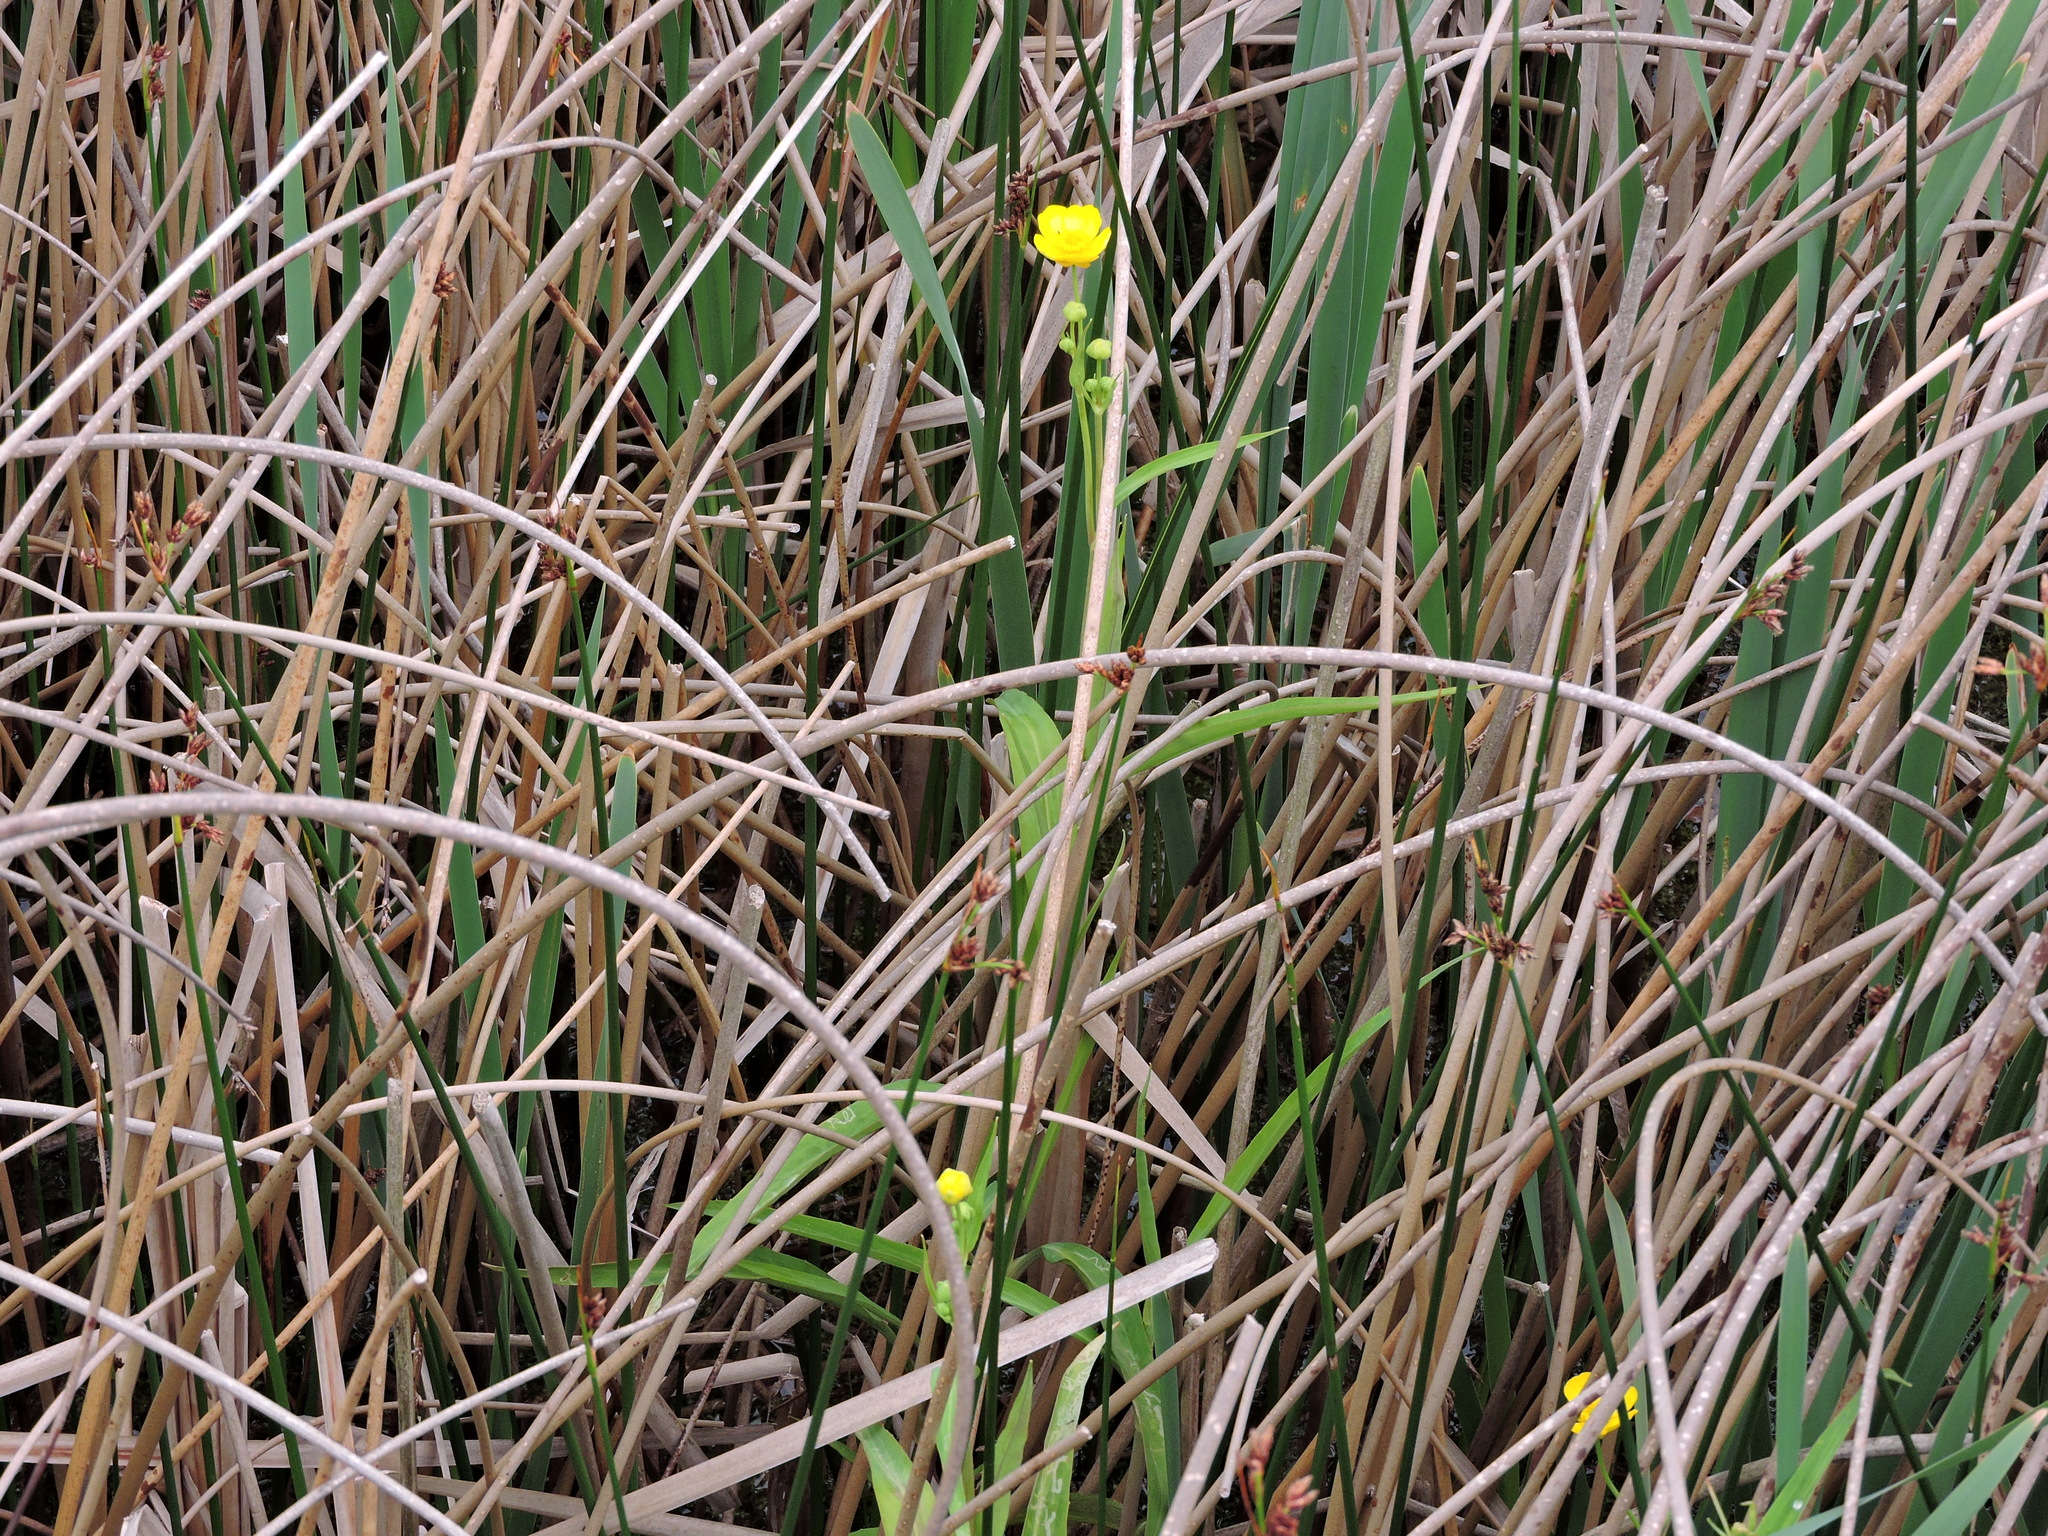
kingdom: Plantae
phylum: Tracheophyta
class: Magnoliopsida
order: Ranunculales
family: Ranunculaceae
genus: Ranunculus
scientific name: Ranunculus flammula
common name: Lesser spearwort
